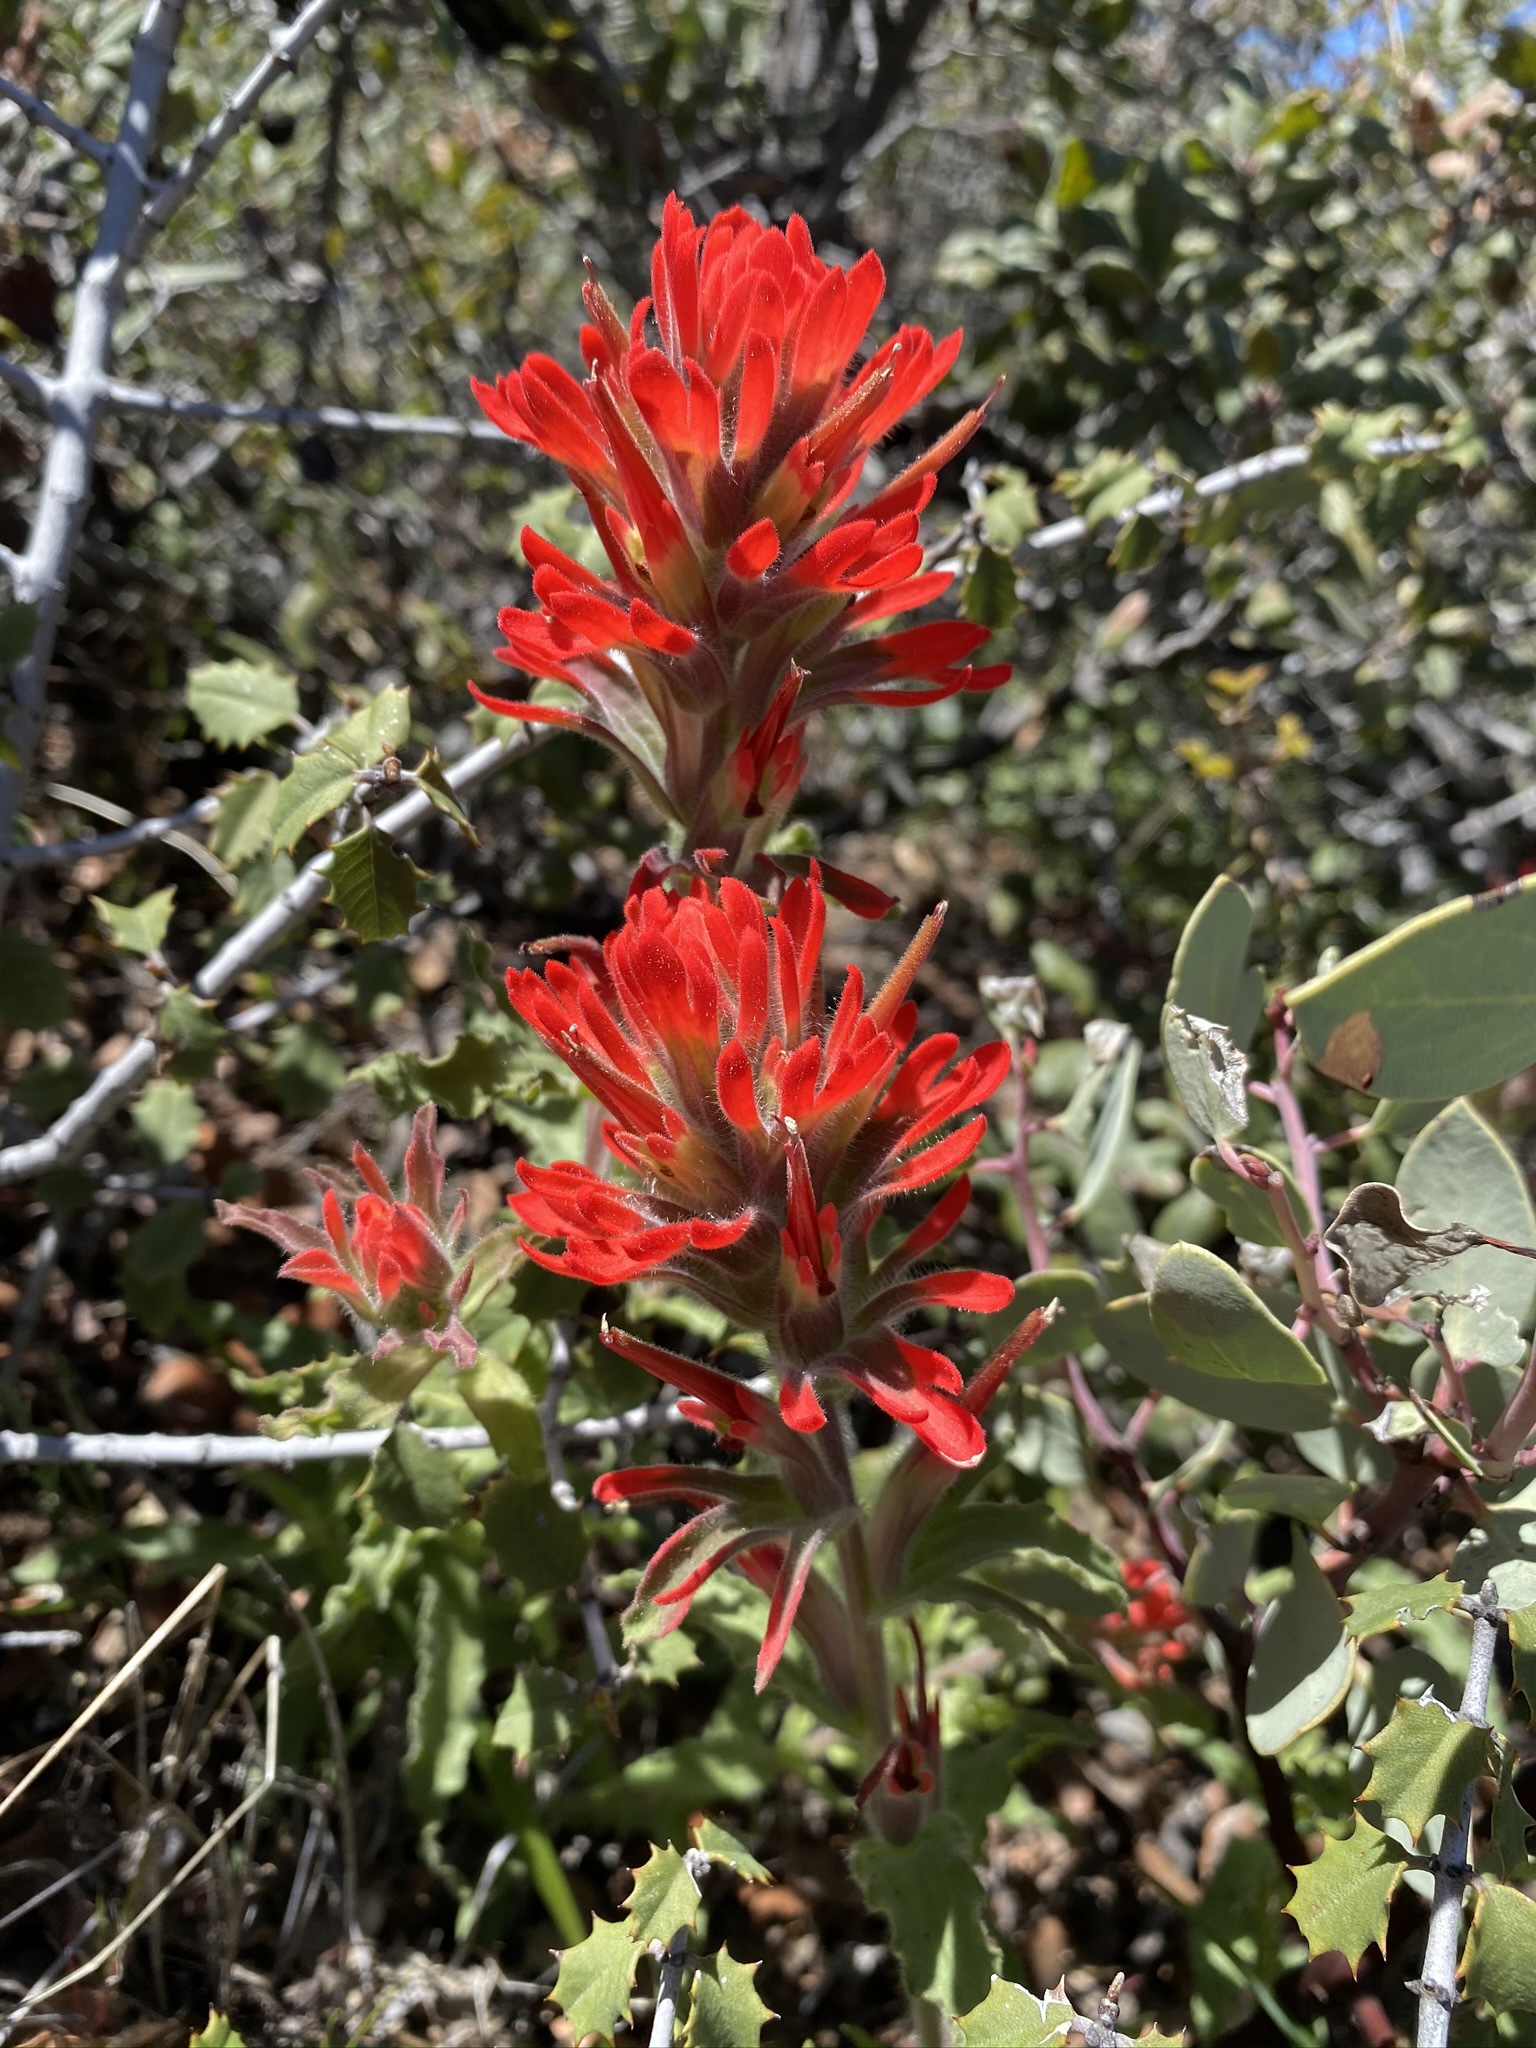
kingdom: Plantae
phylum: Tracheophyta
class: Magnoliopsida
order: Lamiales
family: Orobanchaceae
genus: Castilleja
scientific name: Castilleja martini
